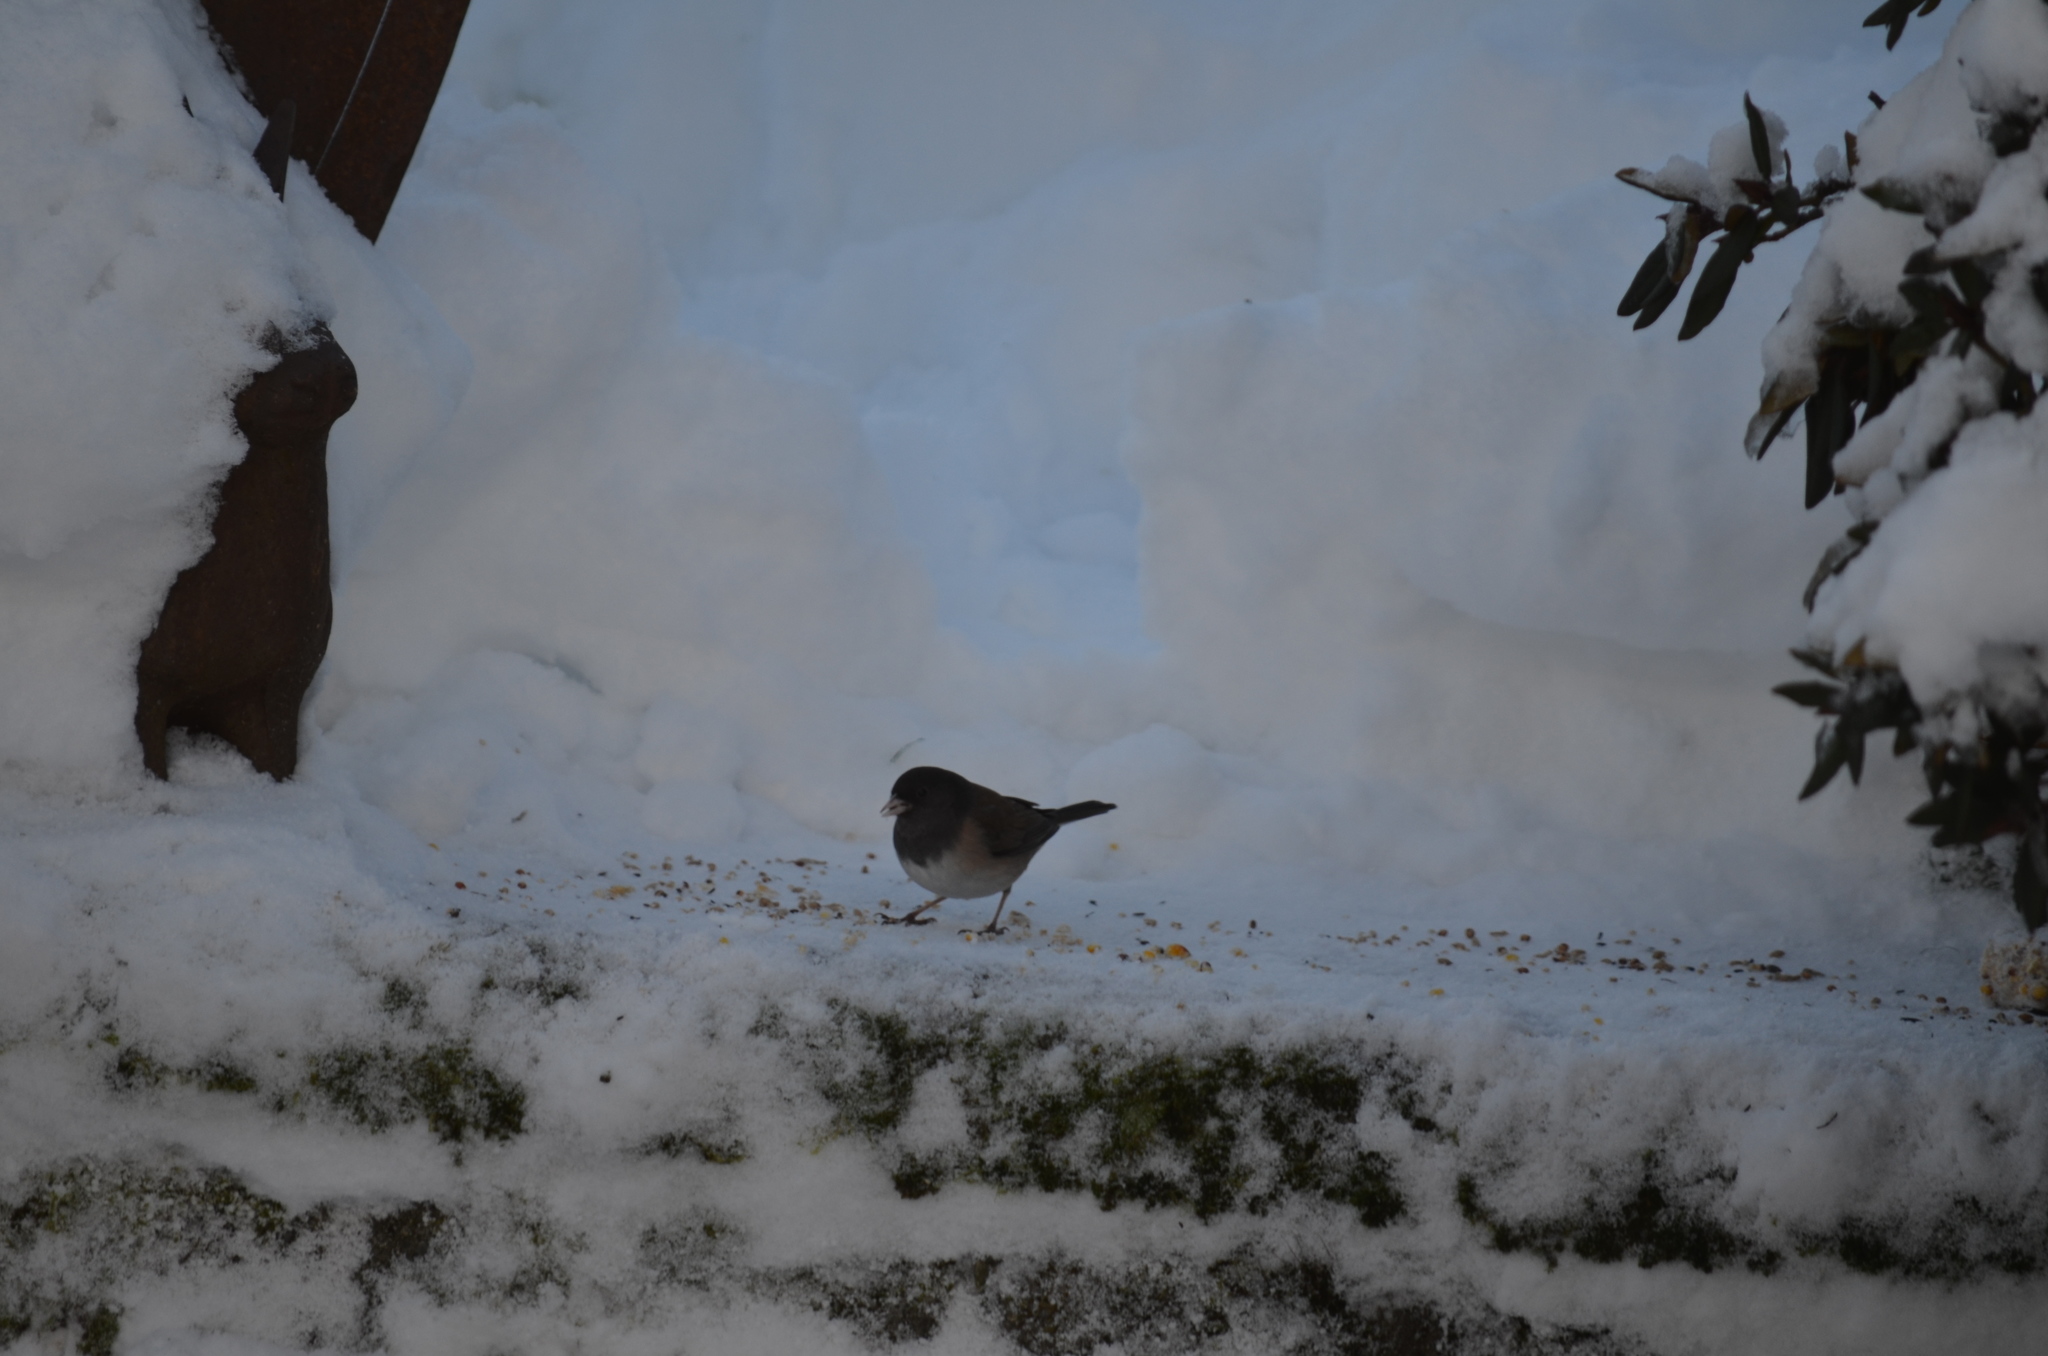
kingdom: Animalia
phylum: Chordata
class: Aves
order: Passeriformes
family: Passerellidae
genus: Junco
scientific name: Junco hyemalis
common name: Dark-eyed junco
